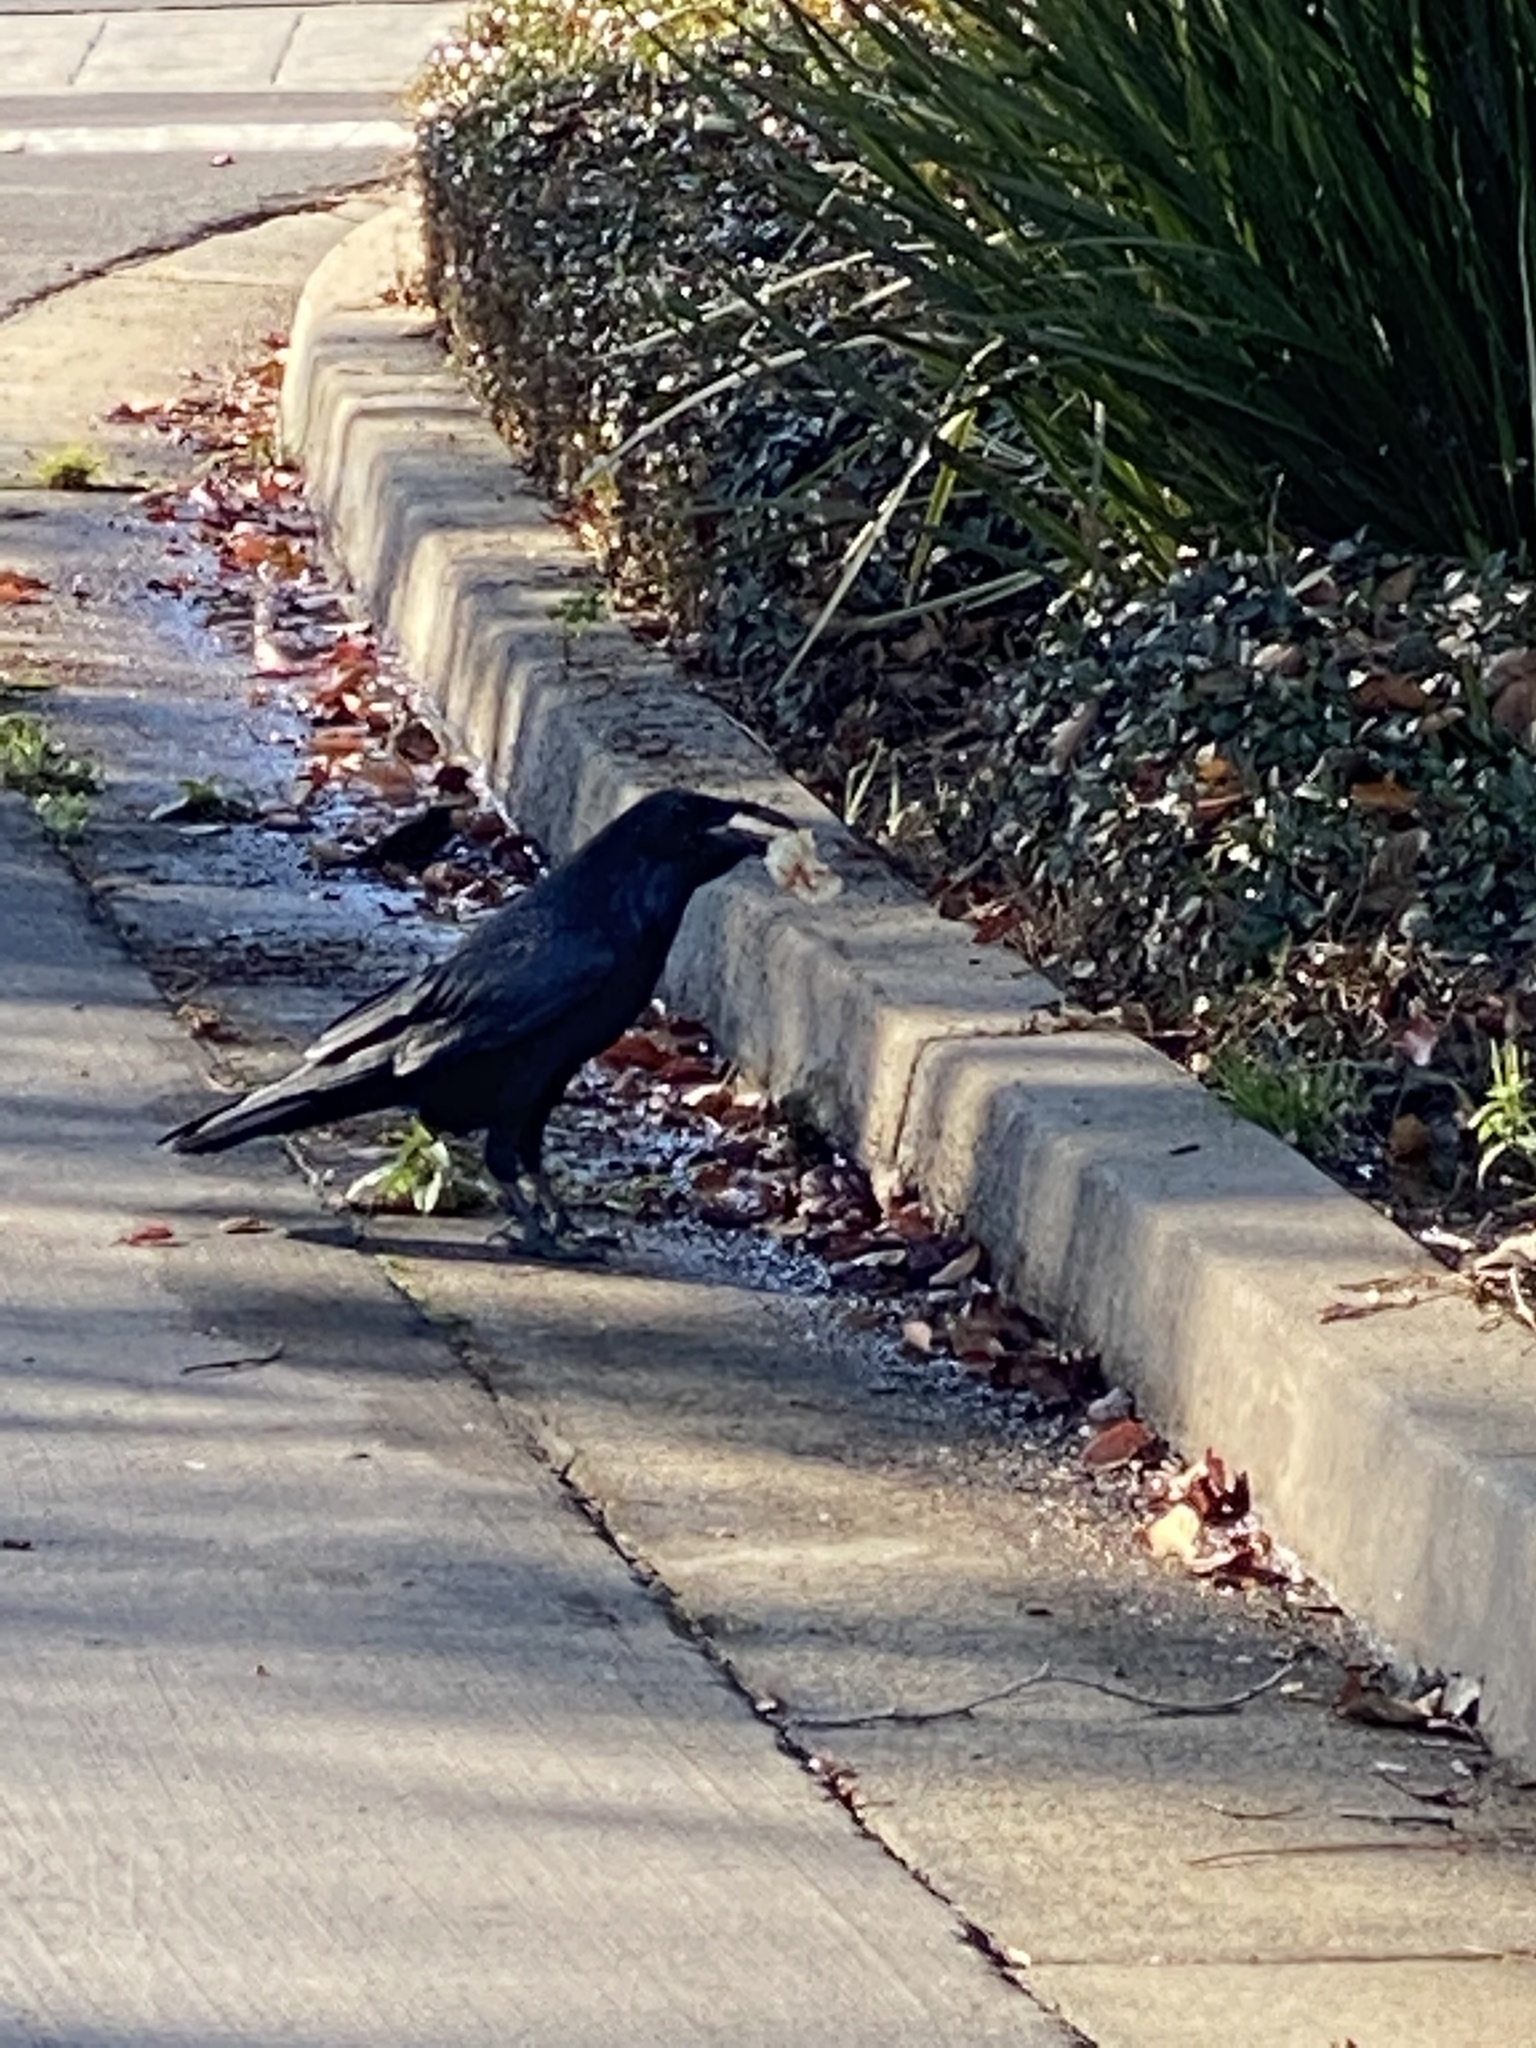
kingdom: Animalia
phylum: Chordata
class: Aves
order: Passeriformes
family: Corvidae
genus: Corvus
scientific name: Corvus corax
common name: Common raven
